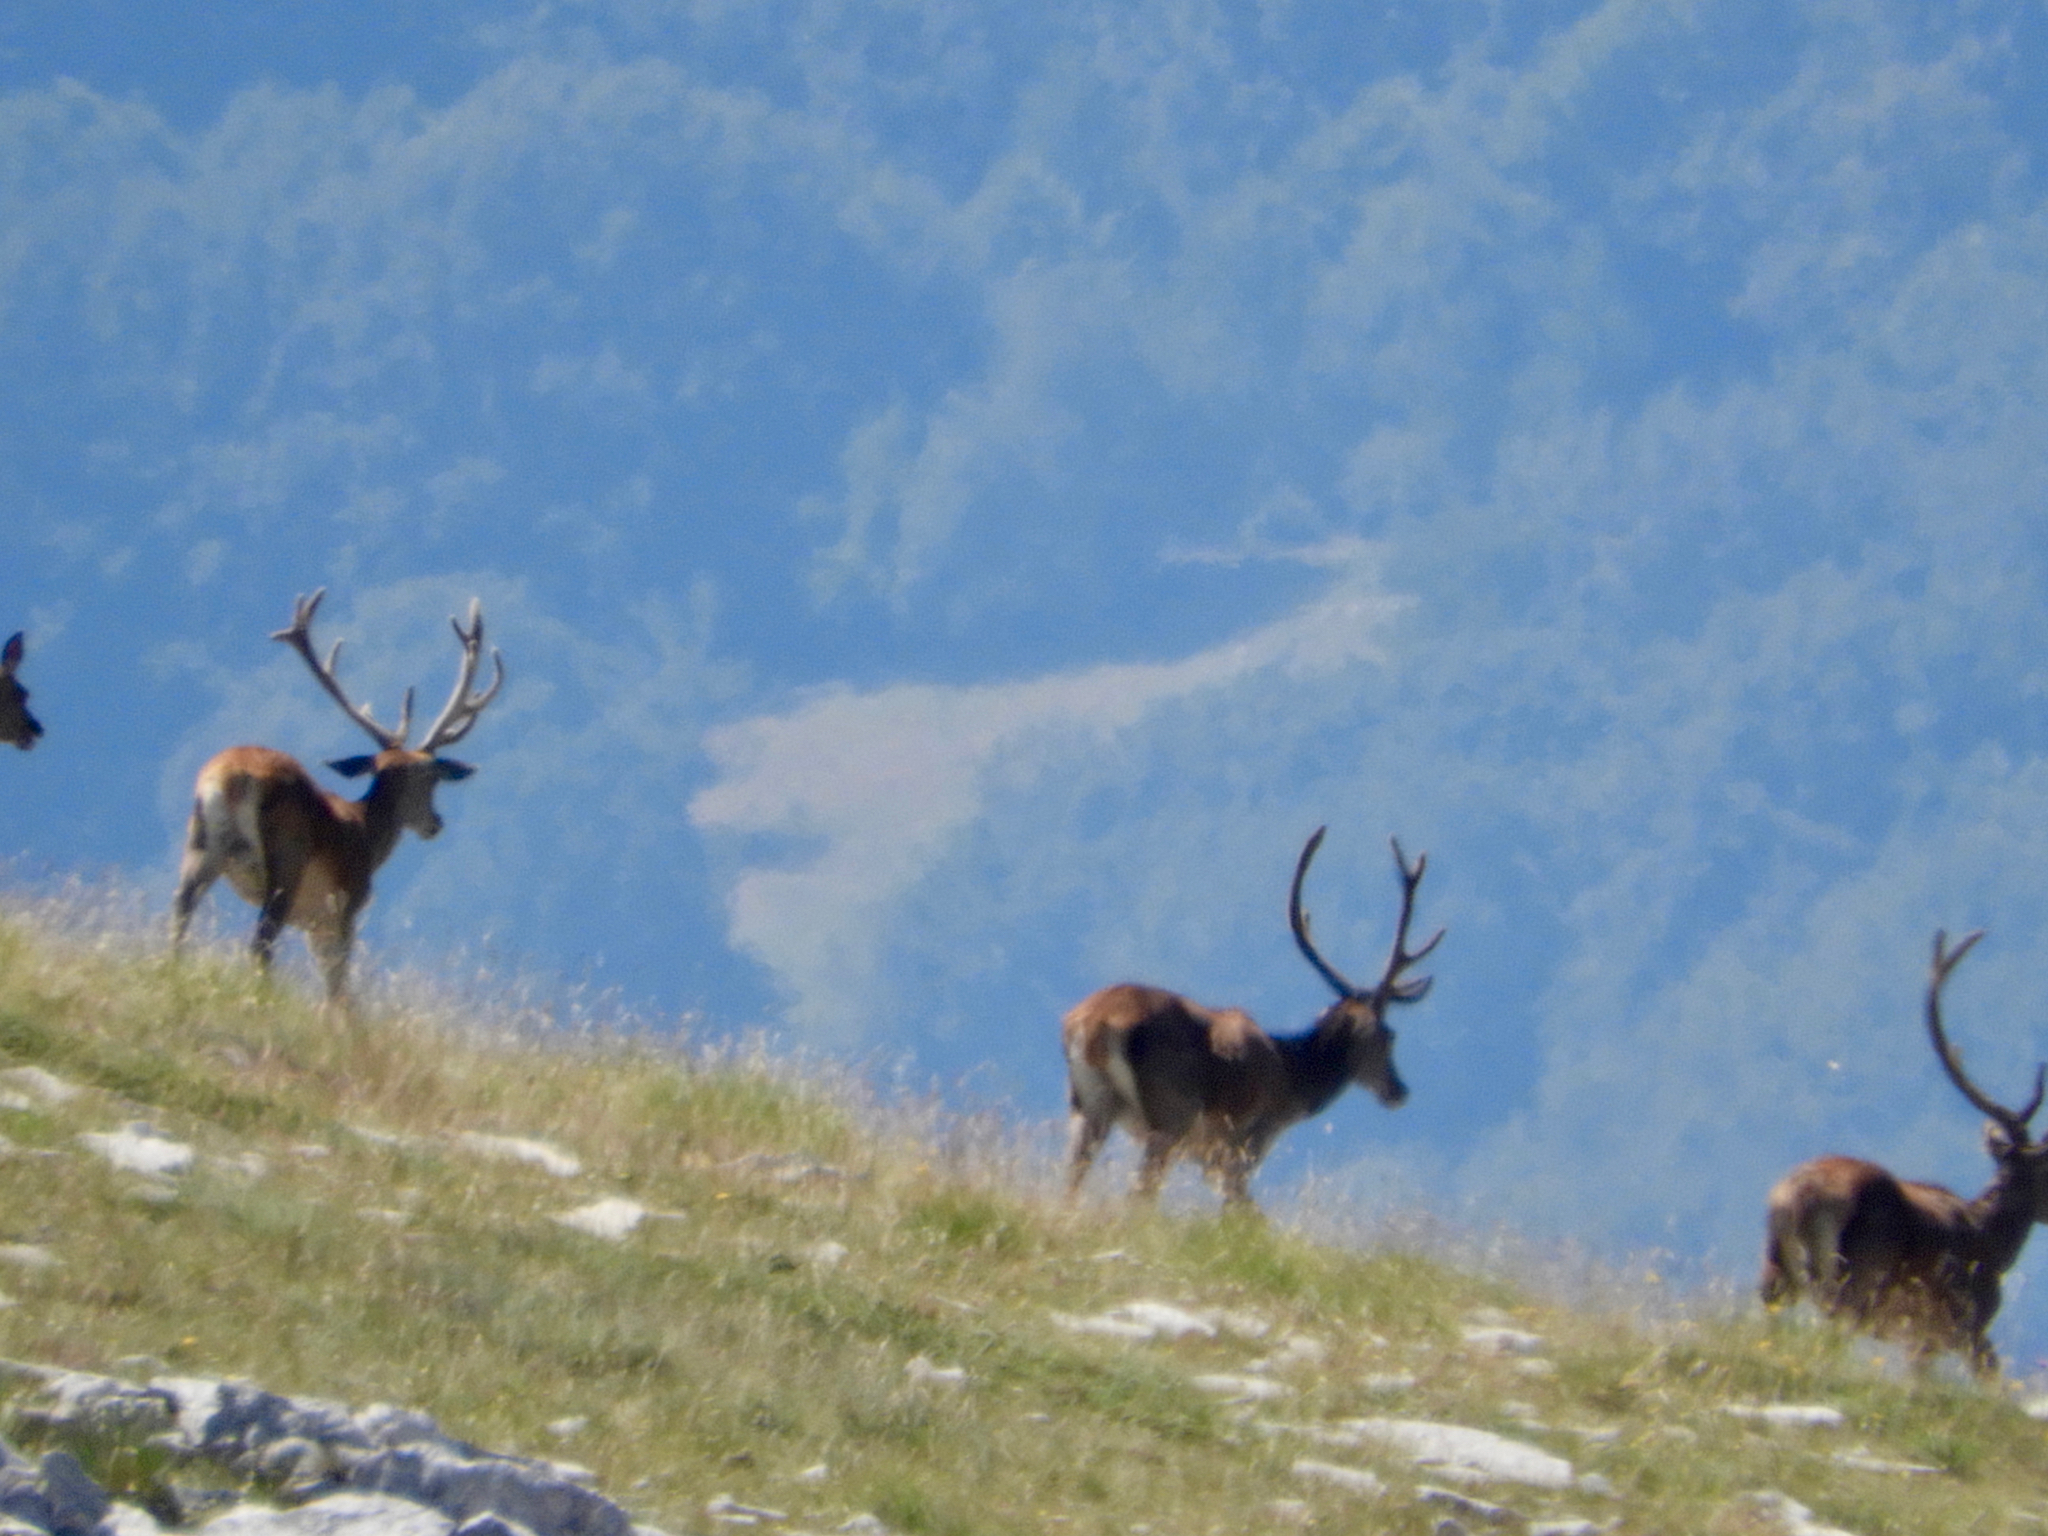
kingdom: Animalia
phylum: Chordata
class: Mammalia
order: Artiodactyla
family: Cervidae
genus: Cervus
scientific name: Cervus elaphus
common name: Red deer
